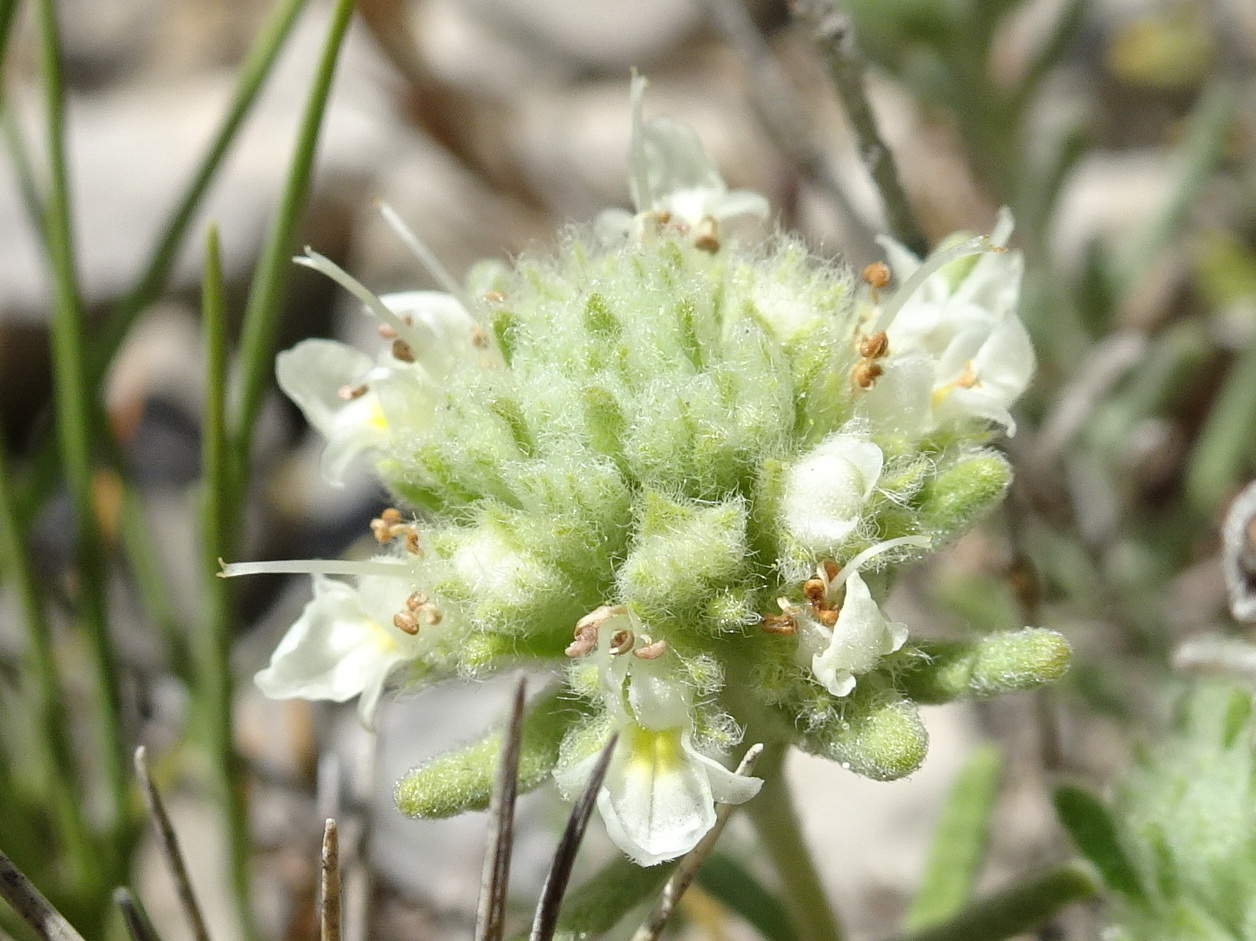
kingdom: Plantae
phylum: Tracheophyta
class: Magnoliopsida
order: Lamiales
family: Lamiaceae
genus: Teucrium
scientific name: Teucrium polium
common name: Poley
